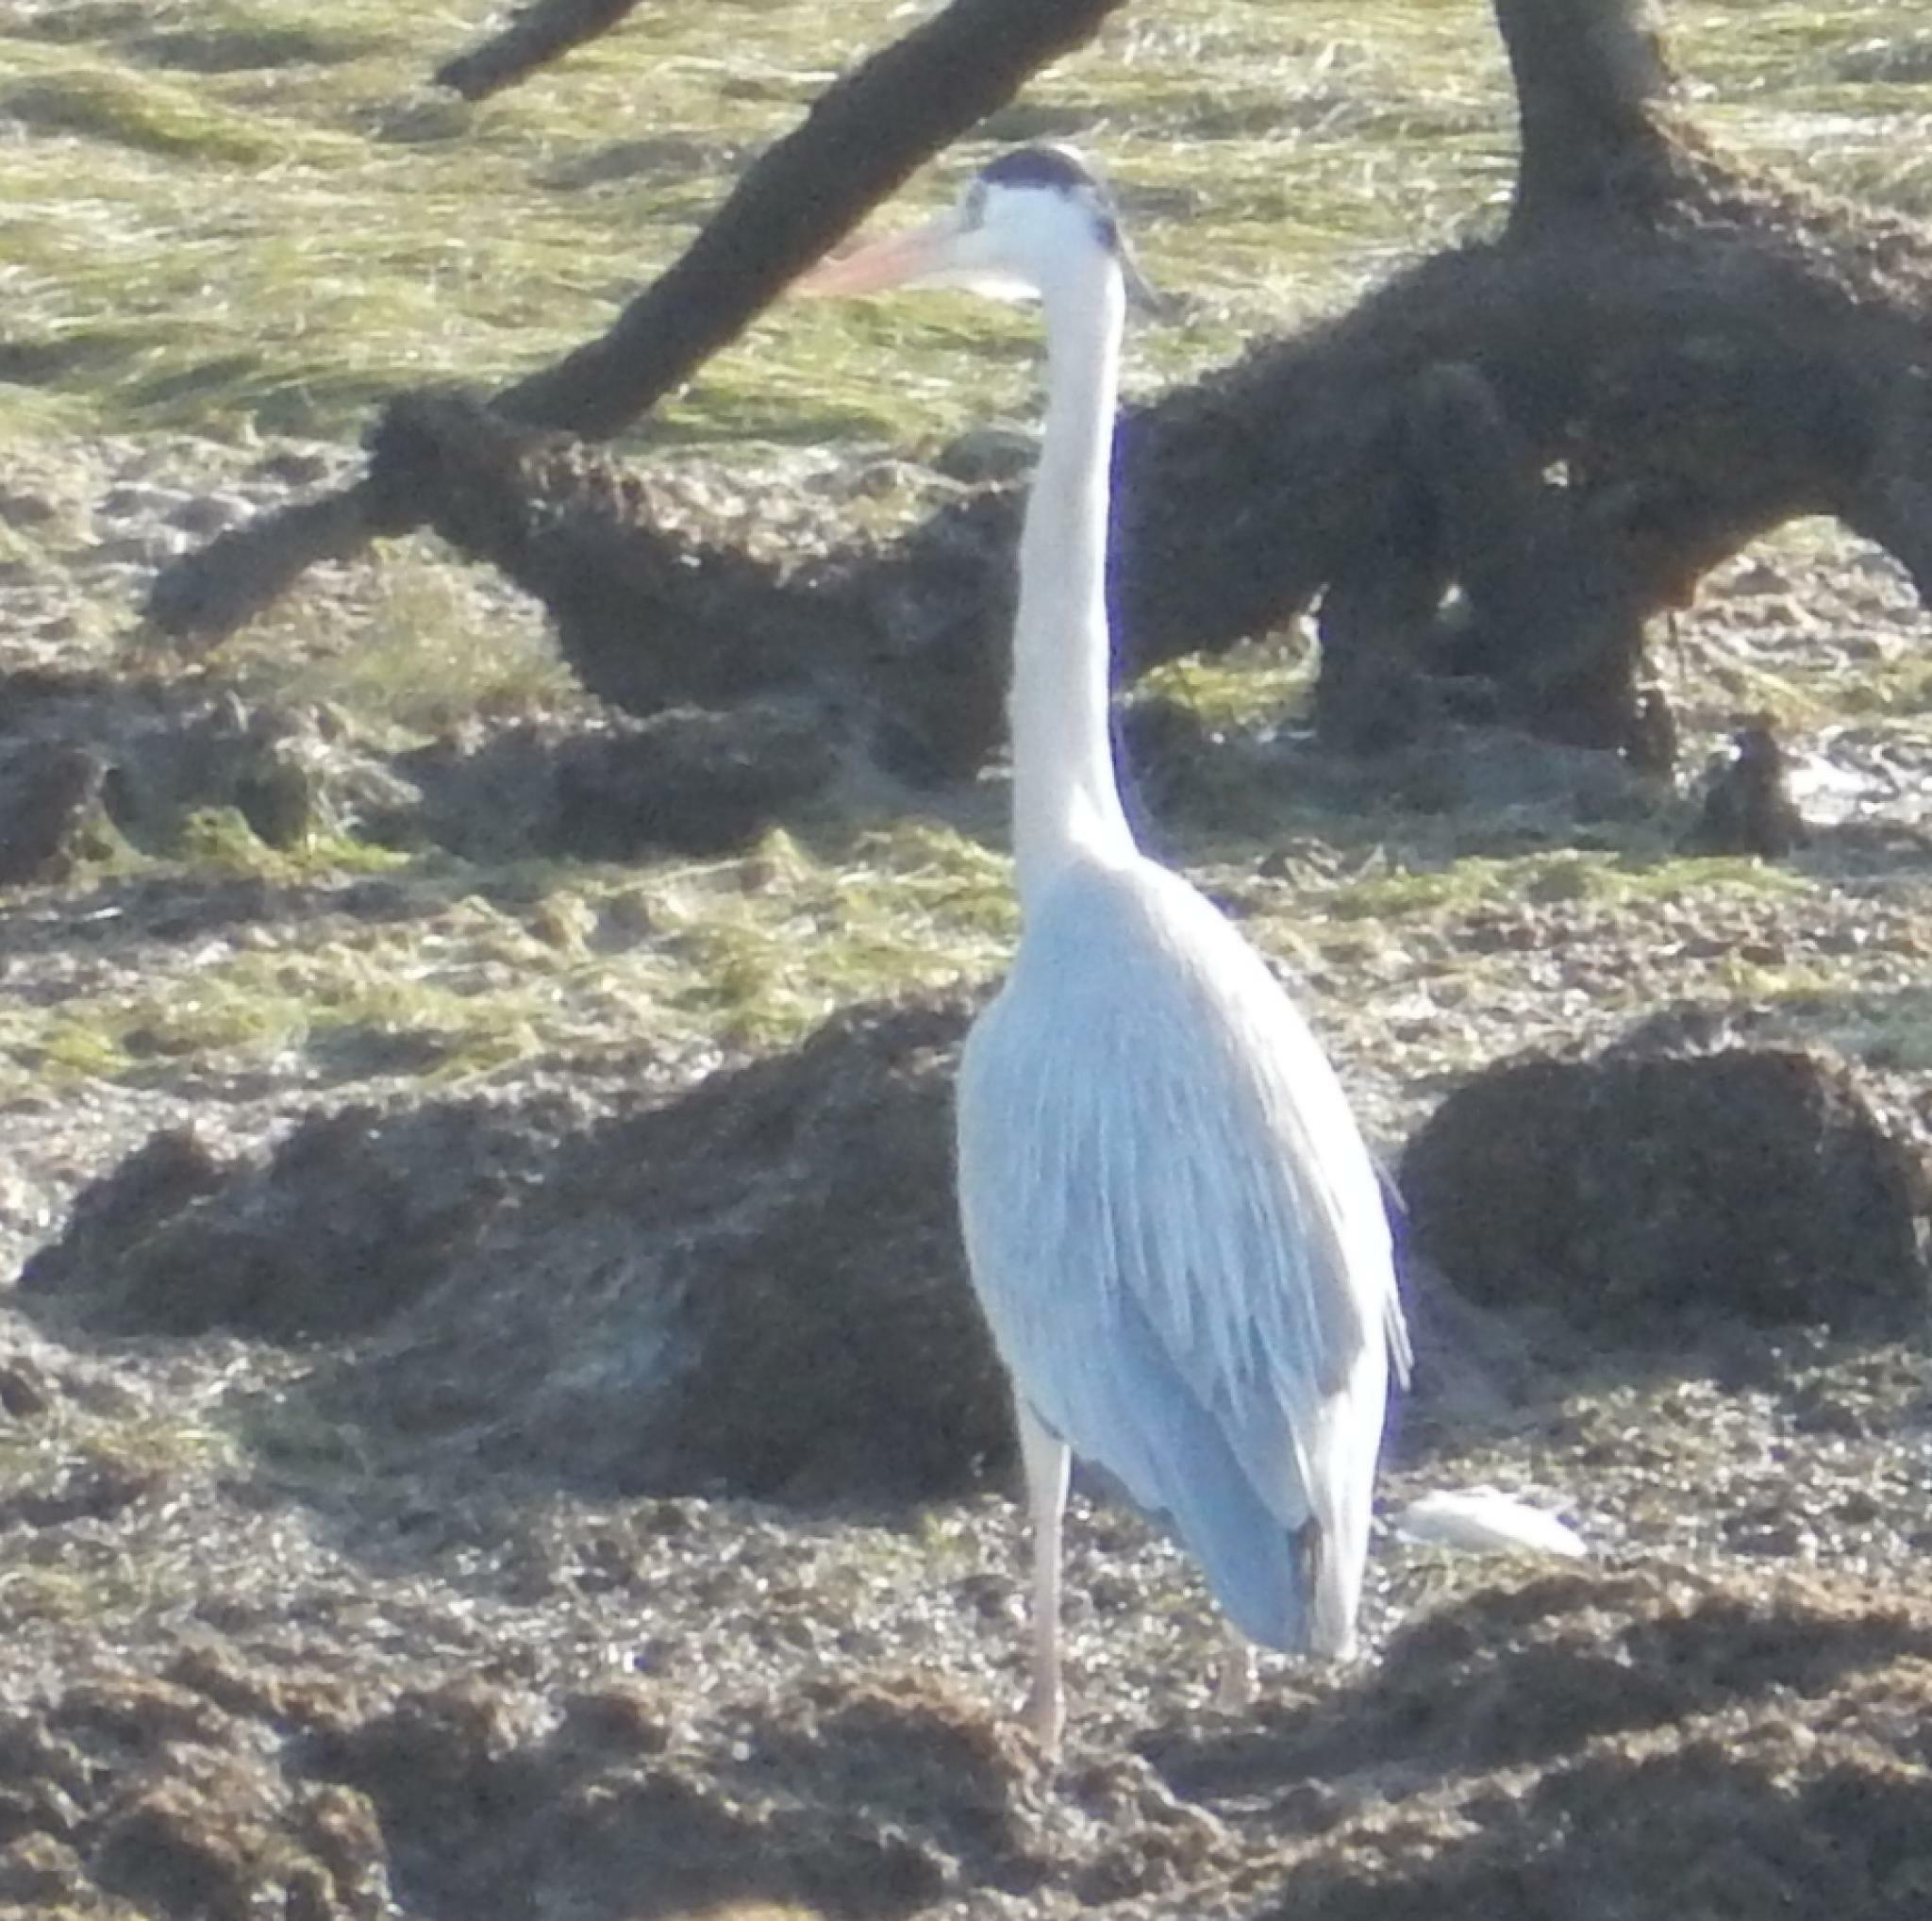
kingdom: Animalia
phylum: Chordata
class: Aves
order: Pelecaniformes
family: Ardeidae
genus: Ardea
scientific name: Ardea cinerea
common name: Grey heron
